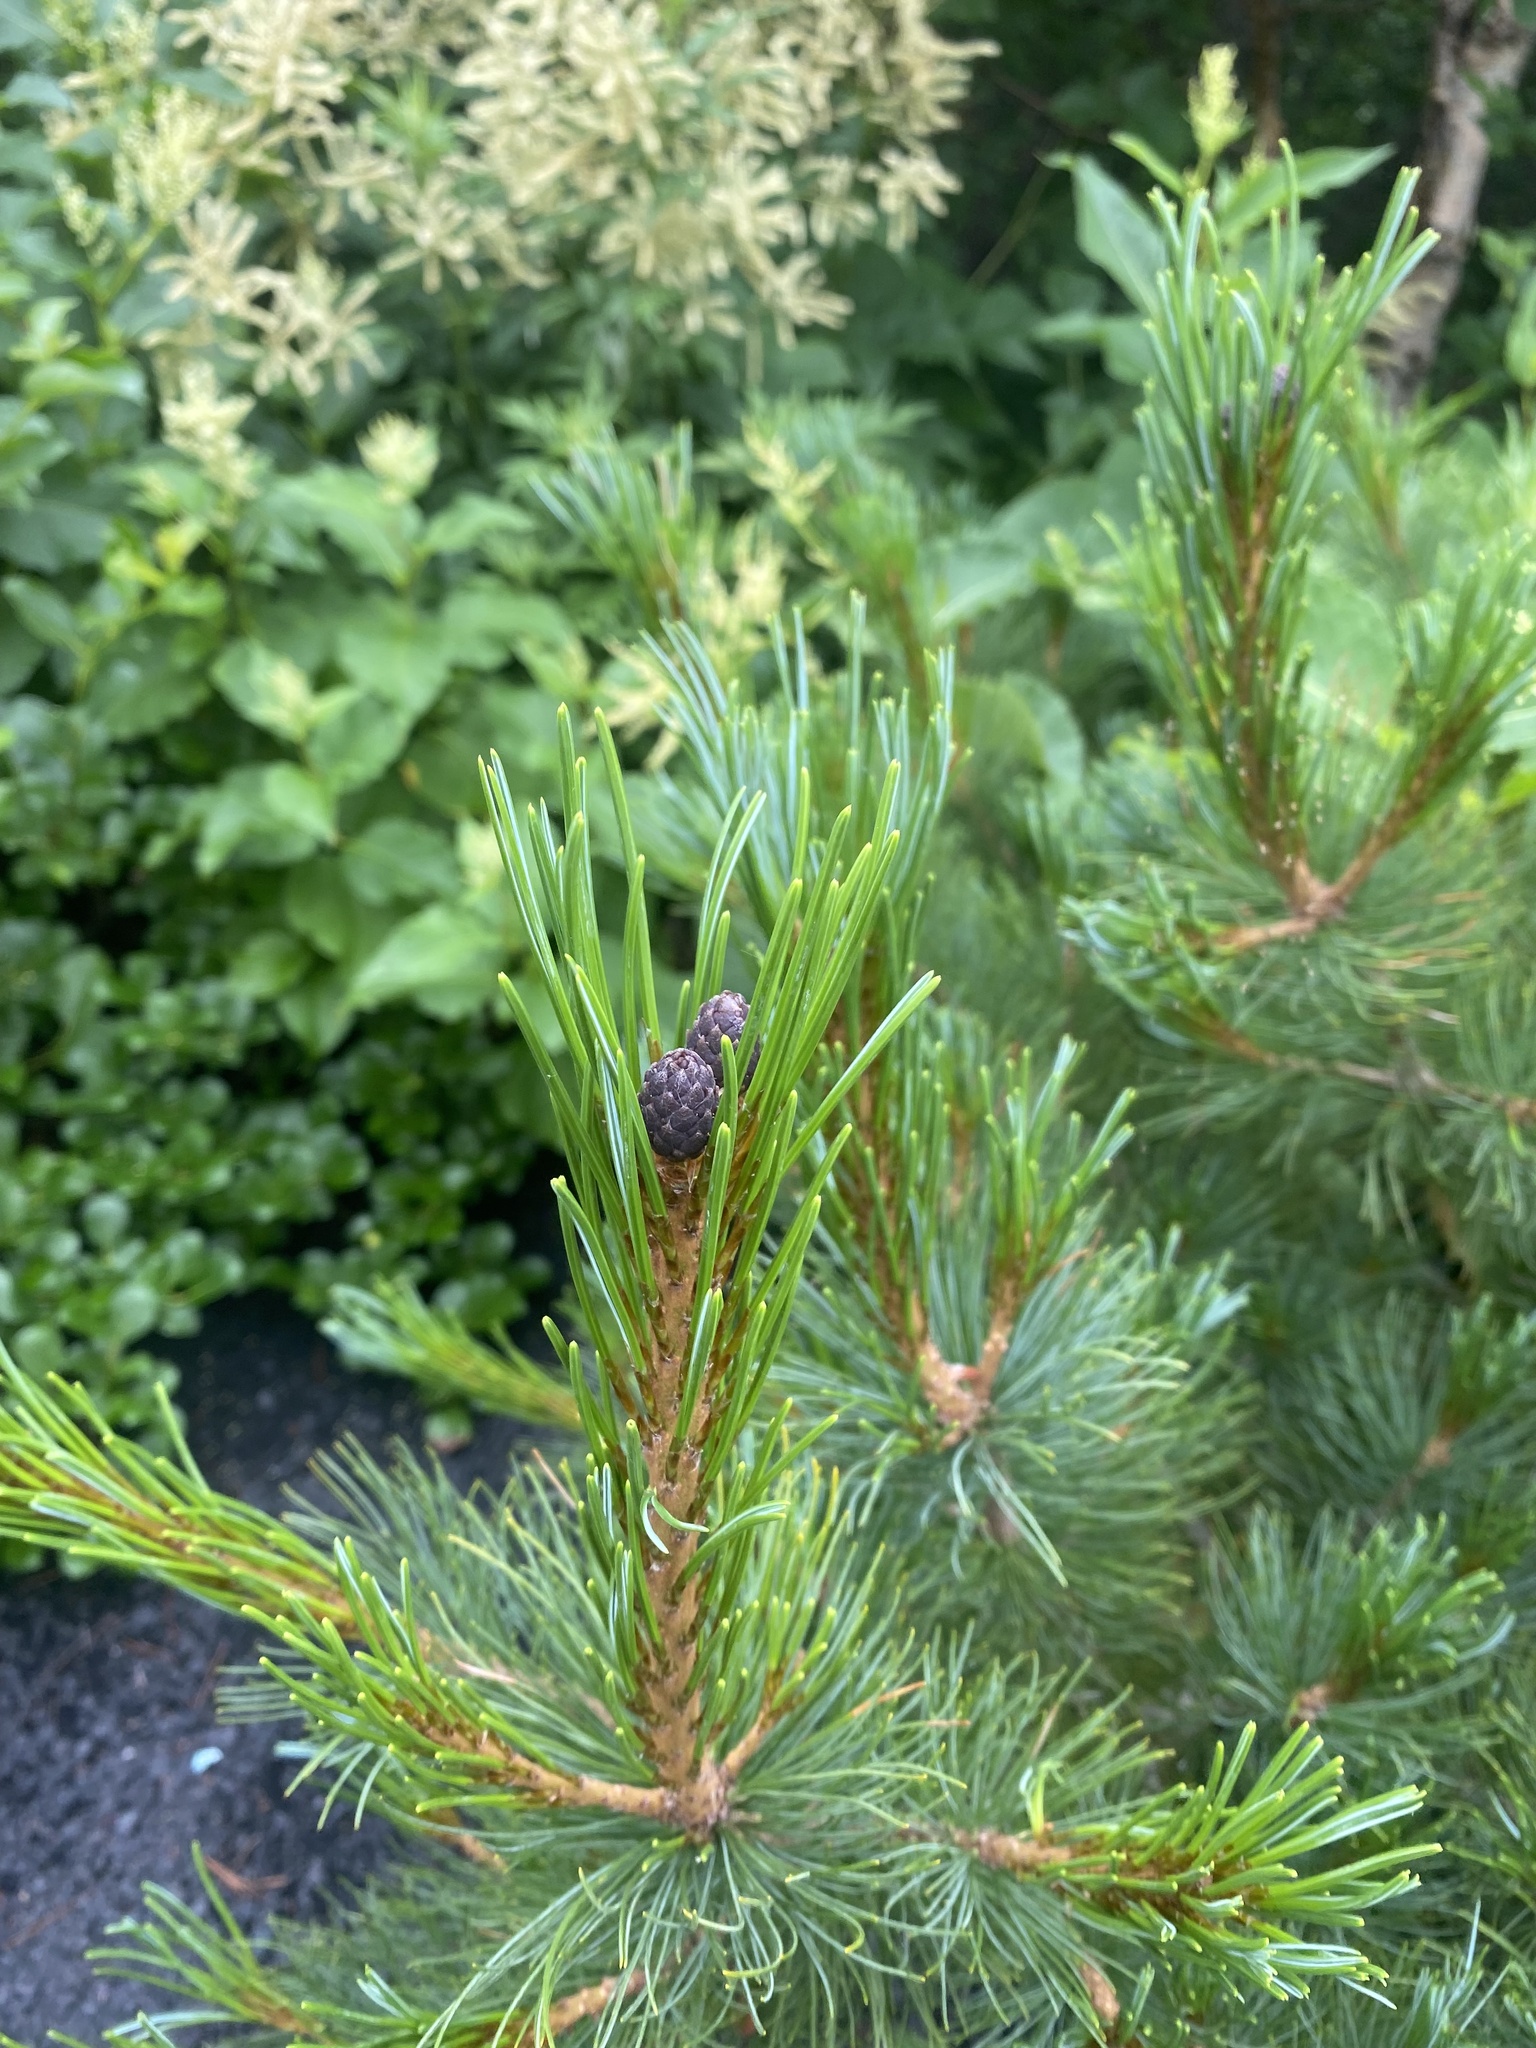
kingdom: Plantae
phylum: Tracheophyta
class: Pinopsida
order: Pinales
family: Pinaceae
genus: Pinus
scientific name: Pinus pumila
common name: Dwarf siberian pine
